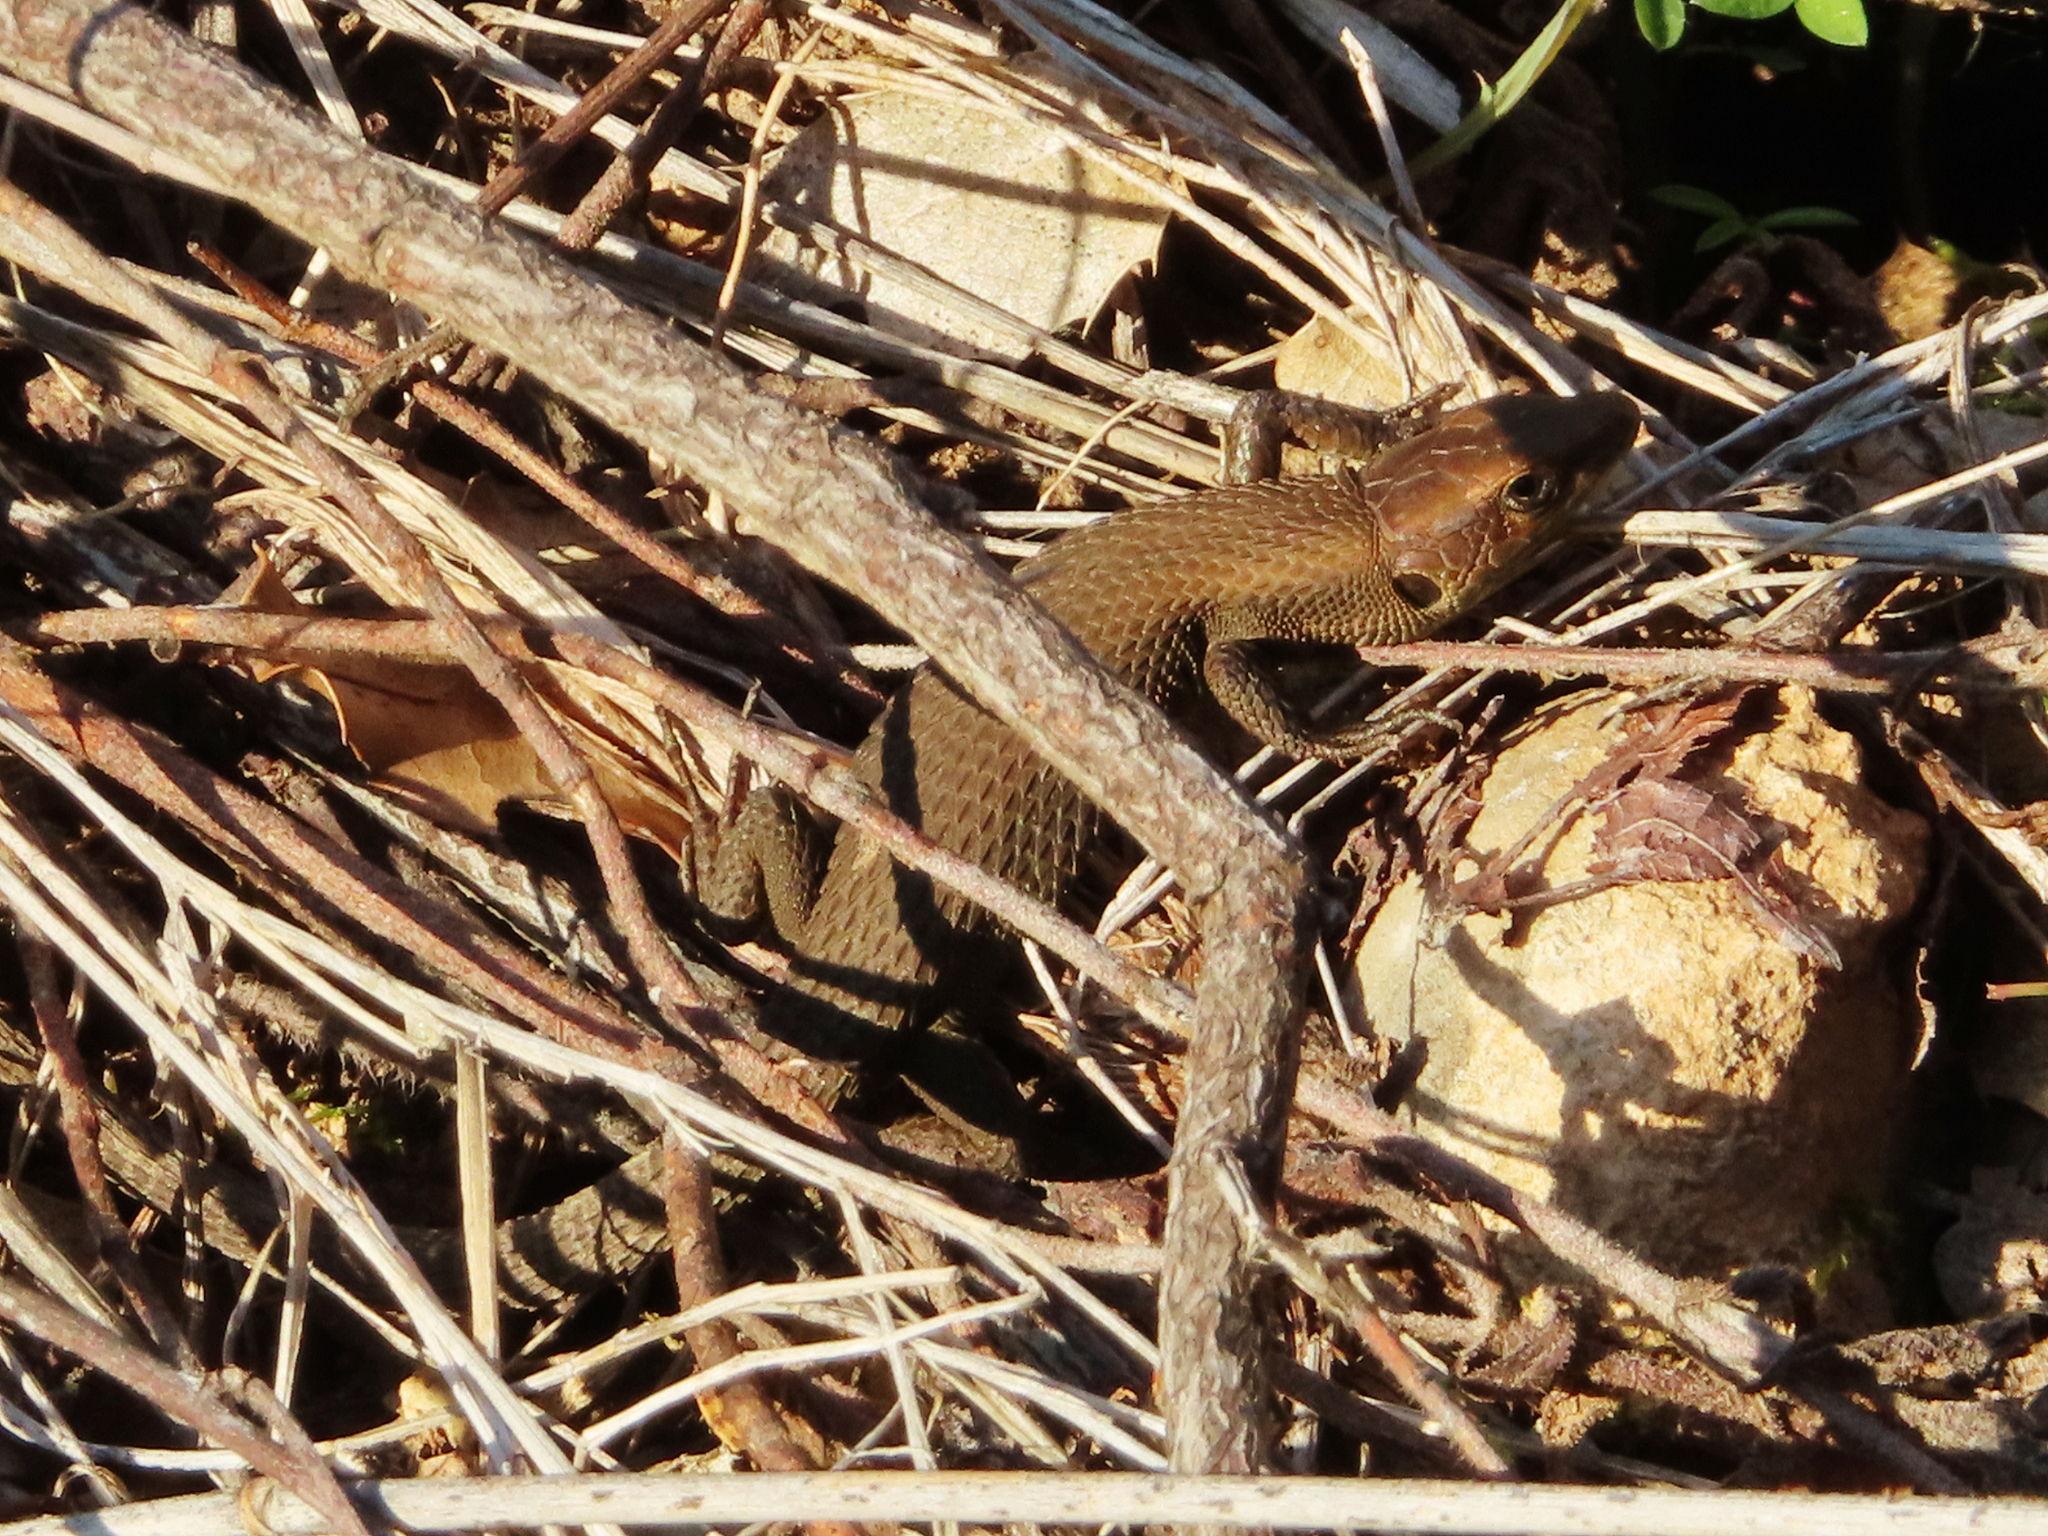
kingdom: Animalia
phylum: Chordata
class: Squamata
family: Lacertidae
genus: Algyroides
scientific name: Algyroides moreoticus
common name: Greek algyroides
